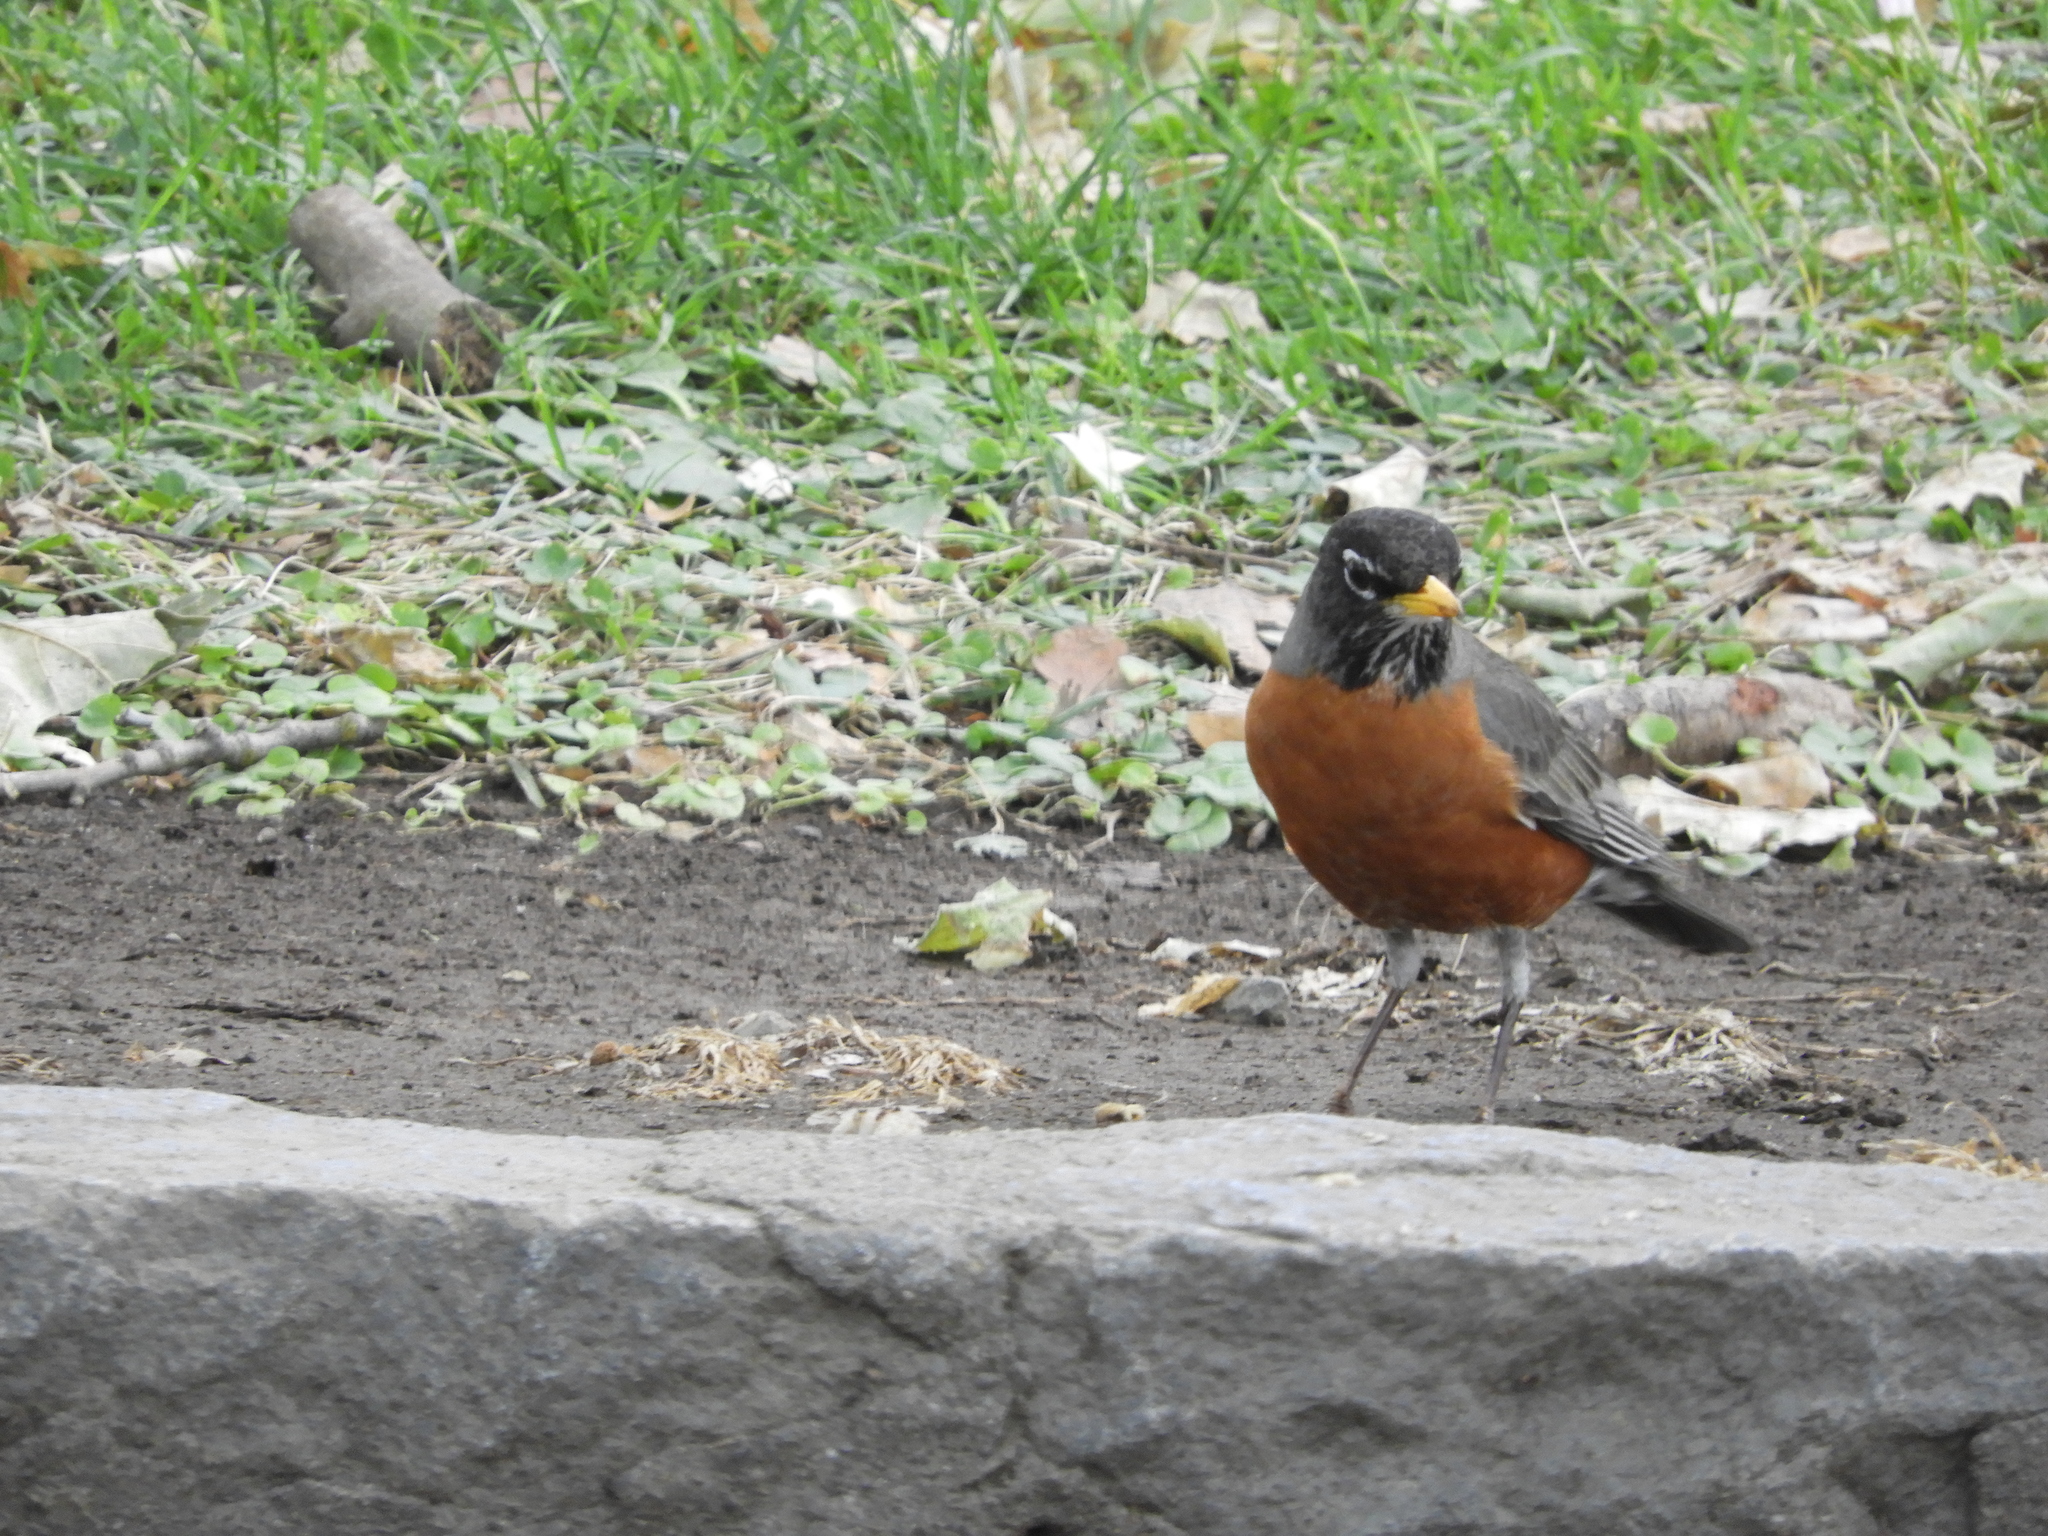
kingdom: Animalia
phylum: Chordata
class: Aves
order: Passeriformes
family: Turdidae
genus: Turdus
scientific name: Turdus migratorius
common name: American robin
